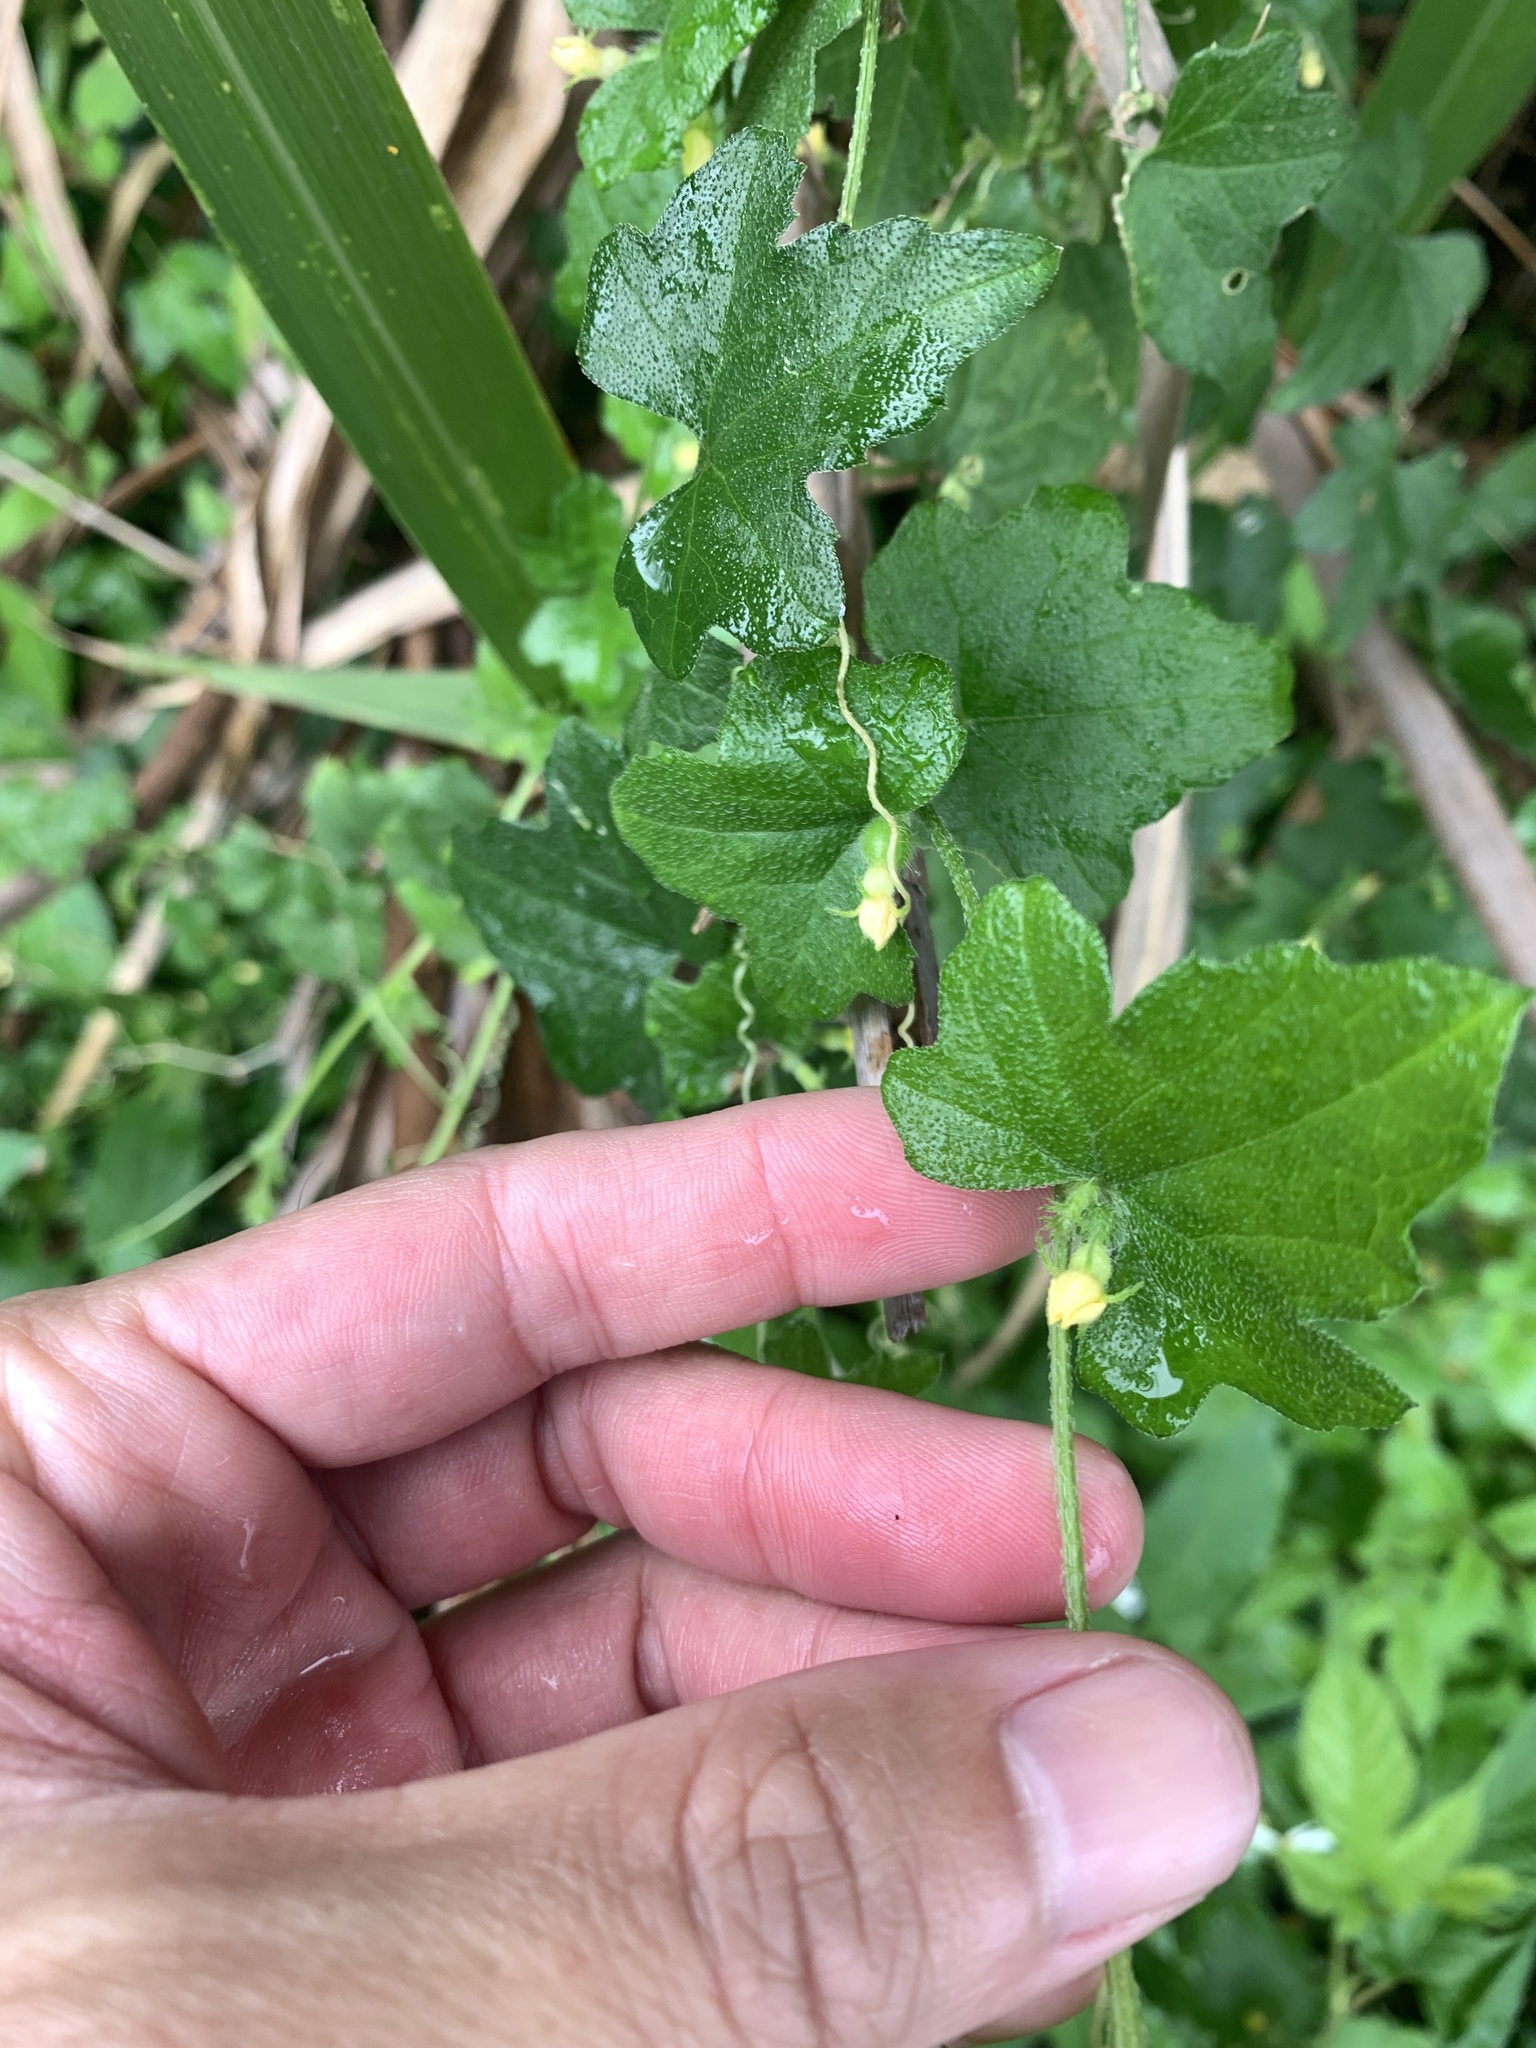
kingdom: Plantae
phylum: Tracheophyta
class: Magnoliopsida
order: Cucurbitales
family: Cucurbitaceae
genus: Cucumis
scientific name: Cucumis maderaspatanus
